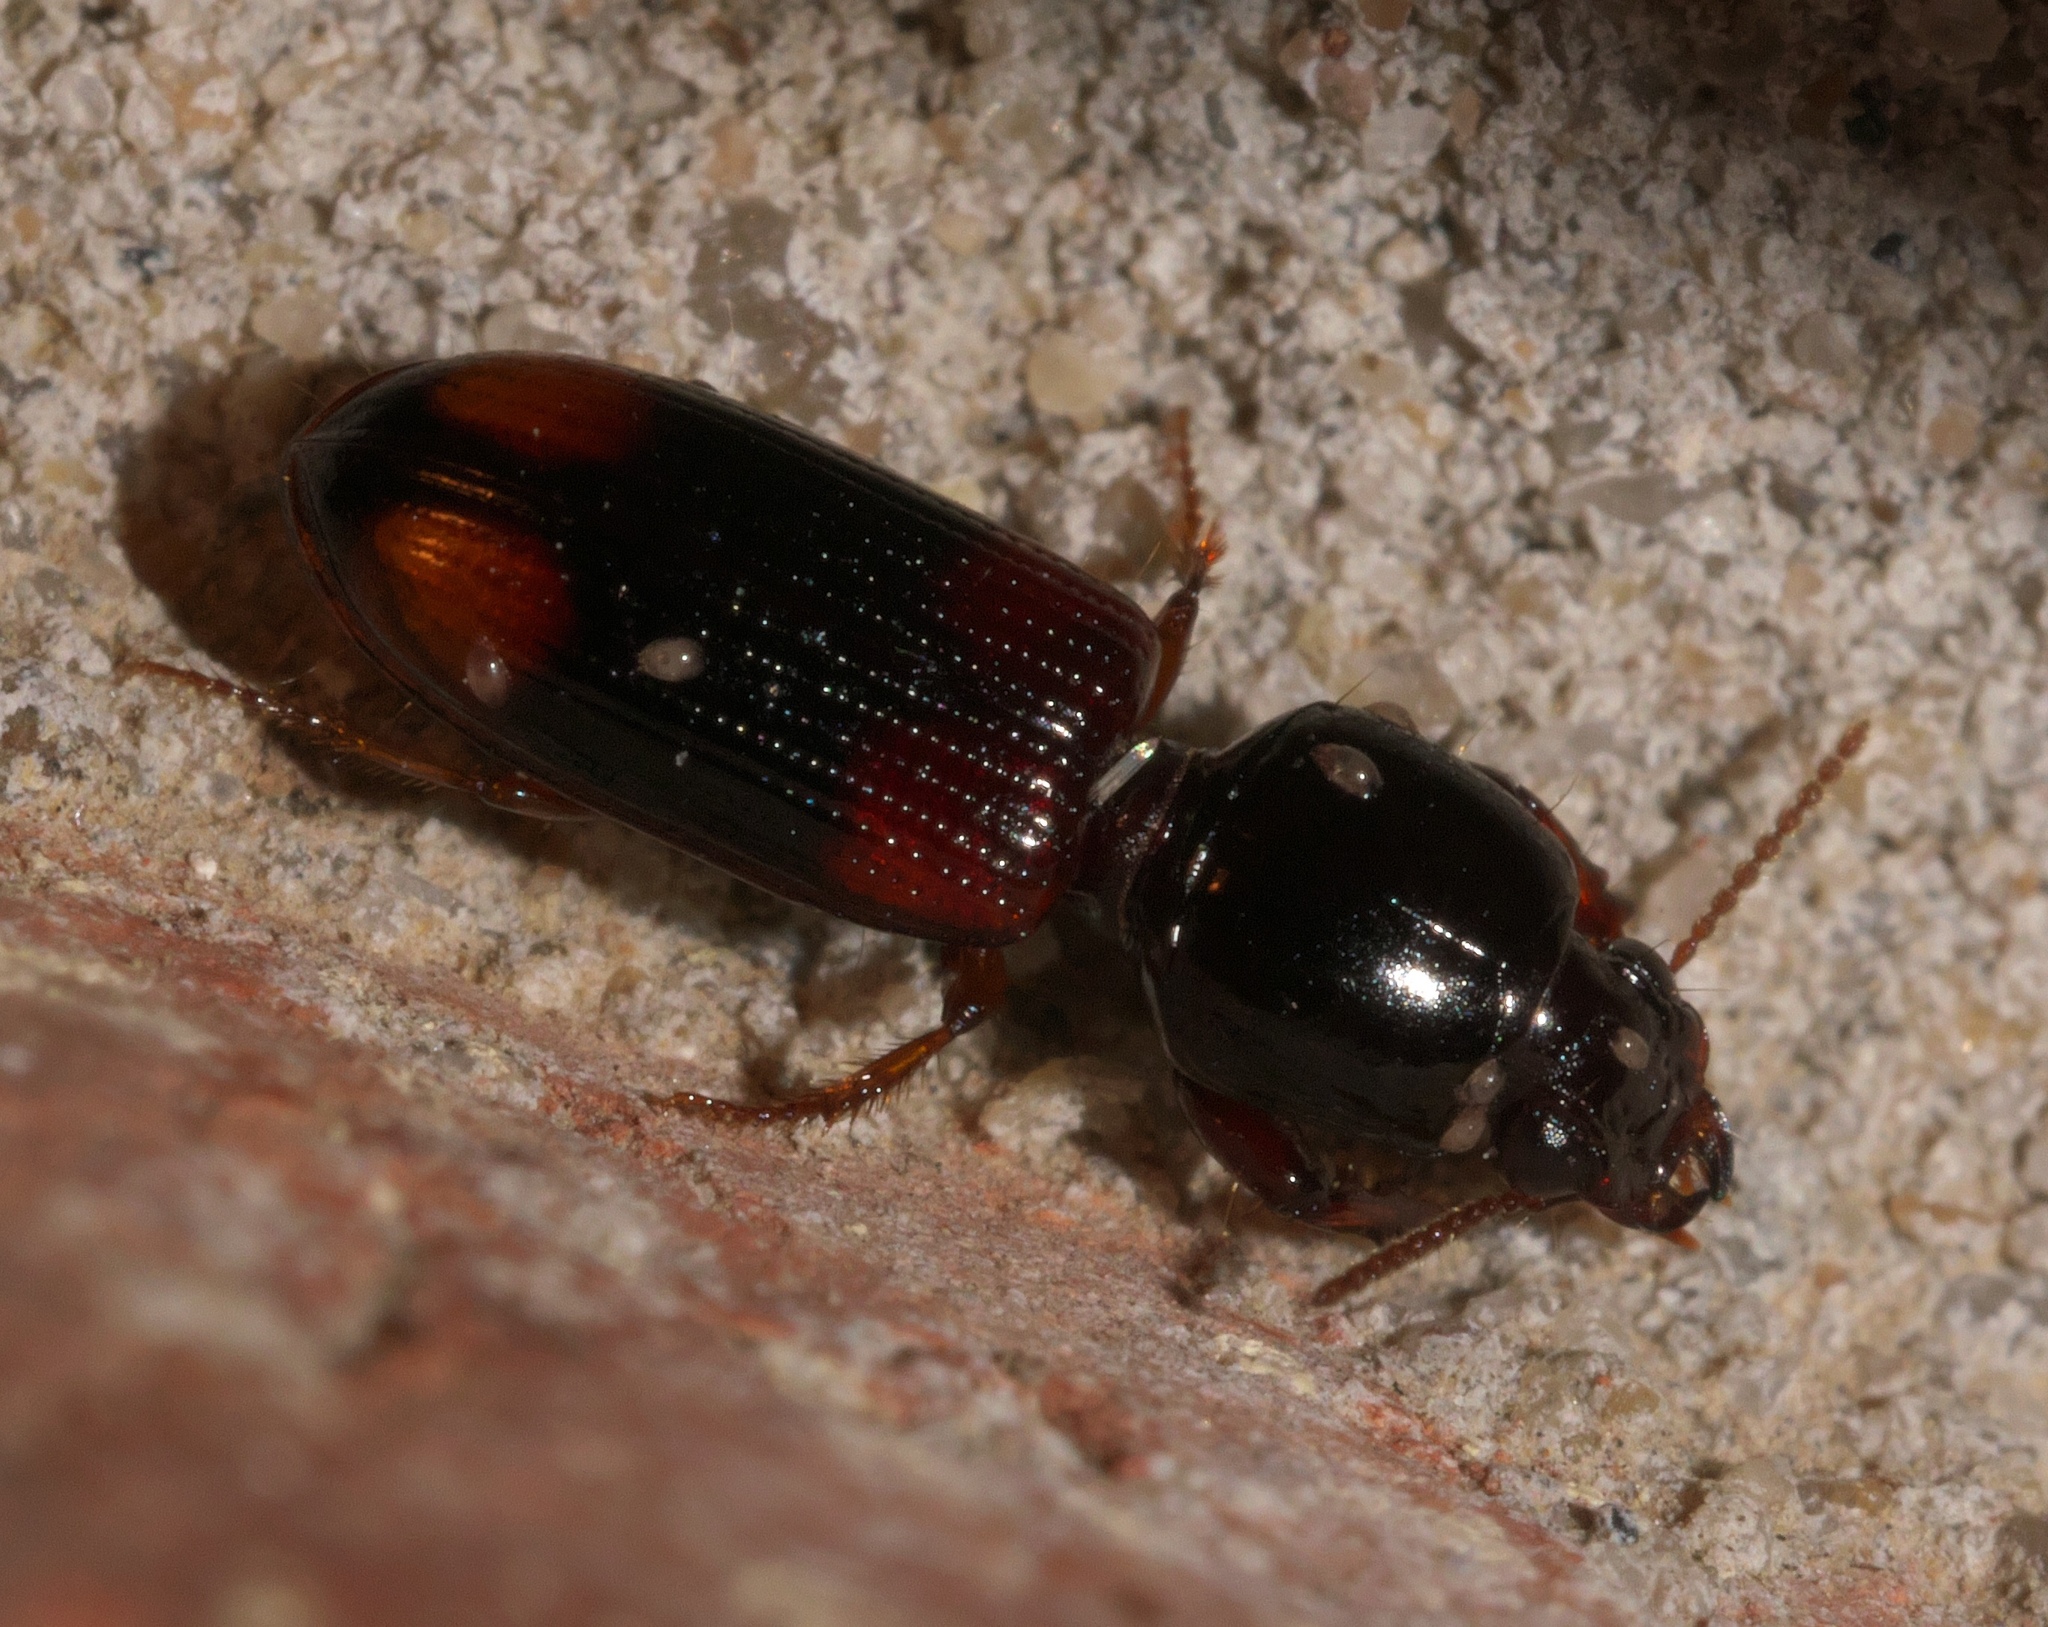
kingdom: Animalia
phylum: Arthropoda
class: Insecta
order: Coleoptera
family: Carabidae
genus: Clivina
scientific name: Clivina bipustulata
